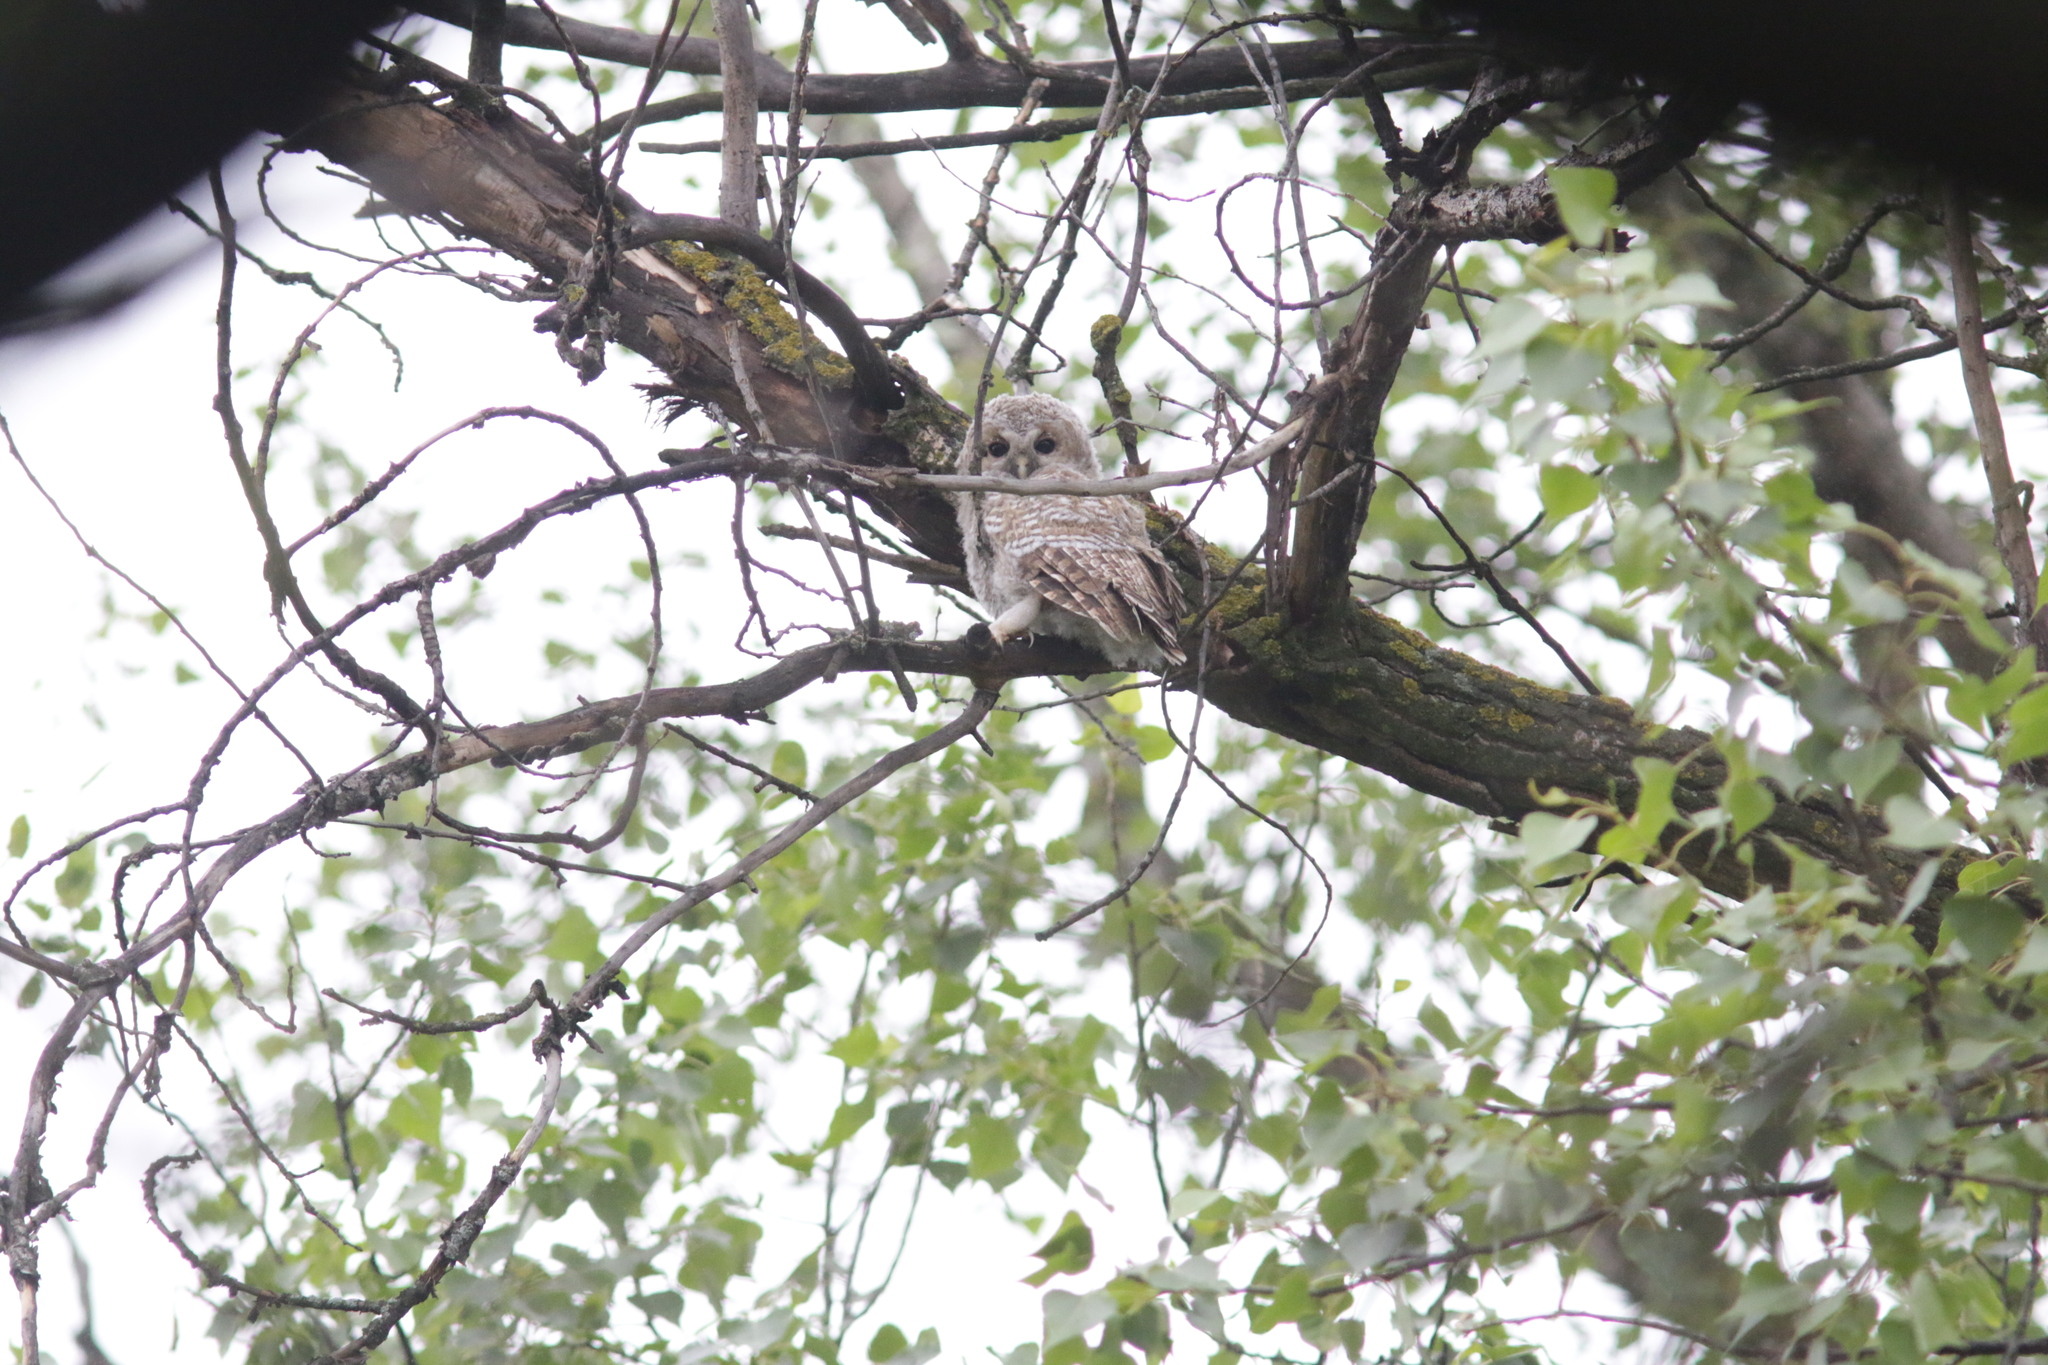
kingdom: Animalia
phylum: Chordata
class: Aves
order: Strigiformes
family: Strigidae
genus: Strix
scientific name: Strix aluco
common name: Tawny owl
